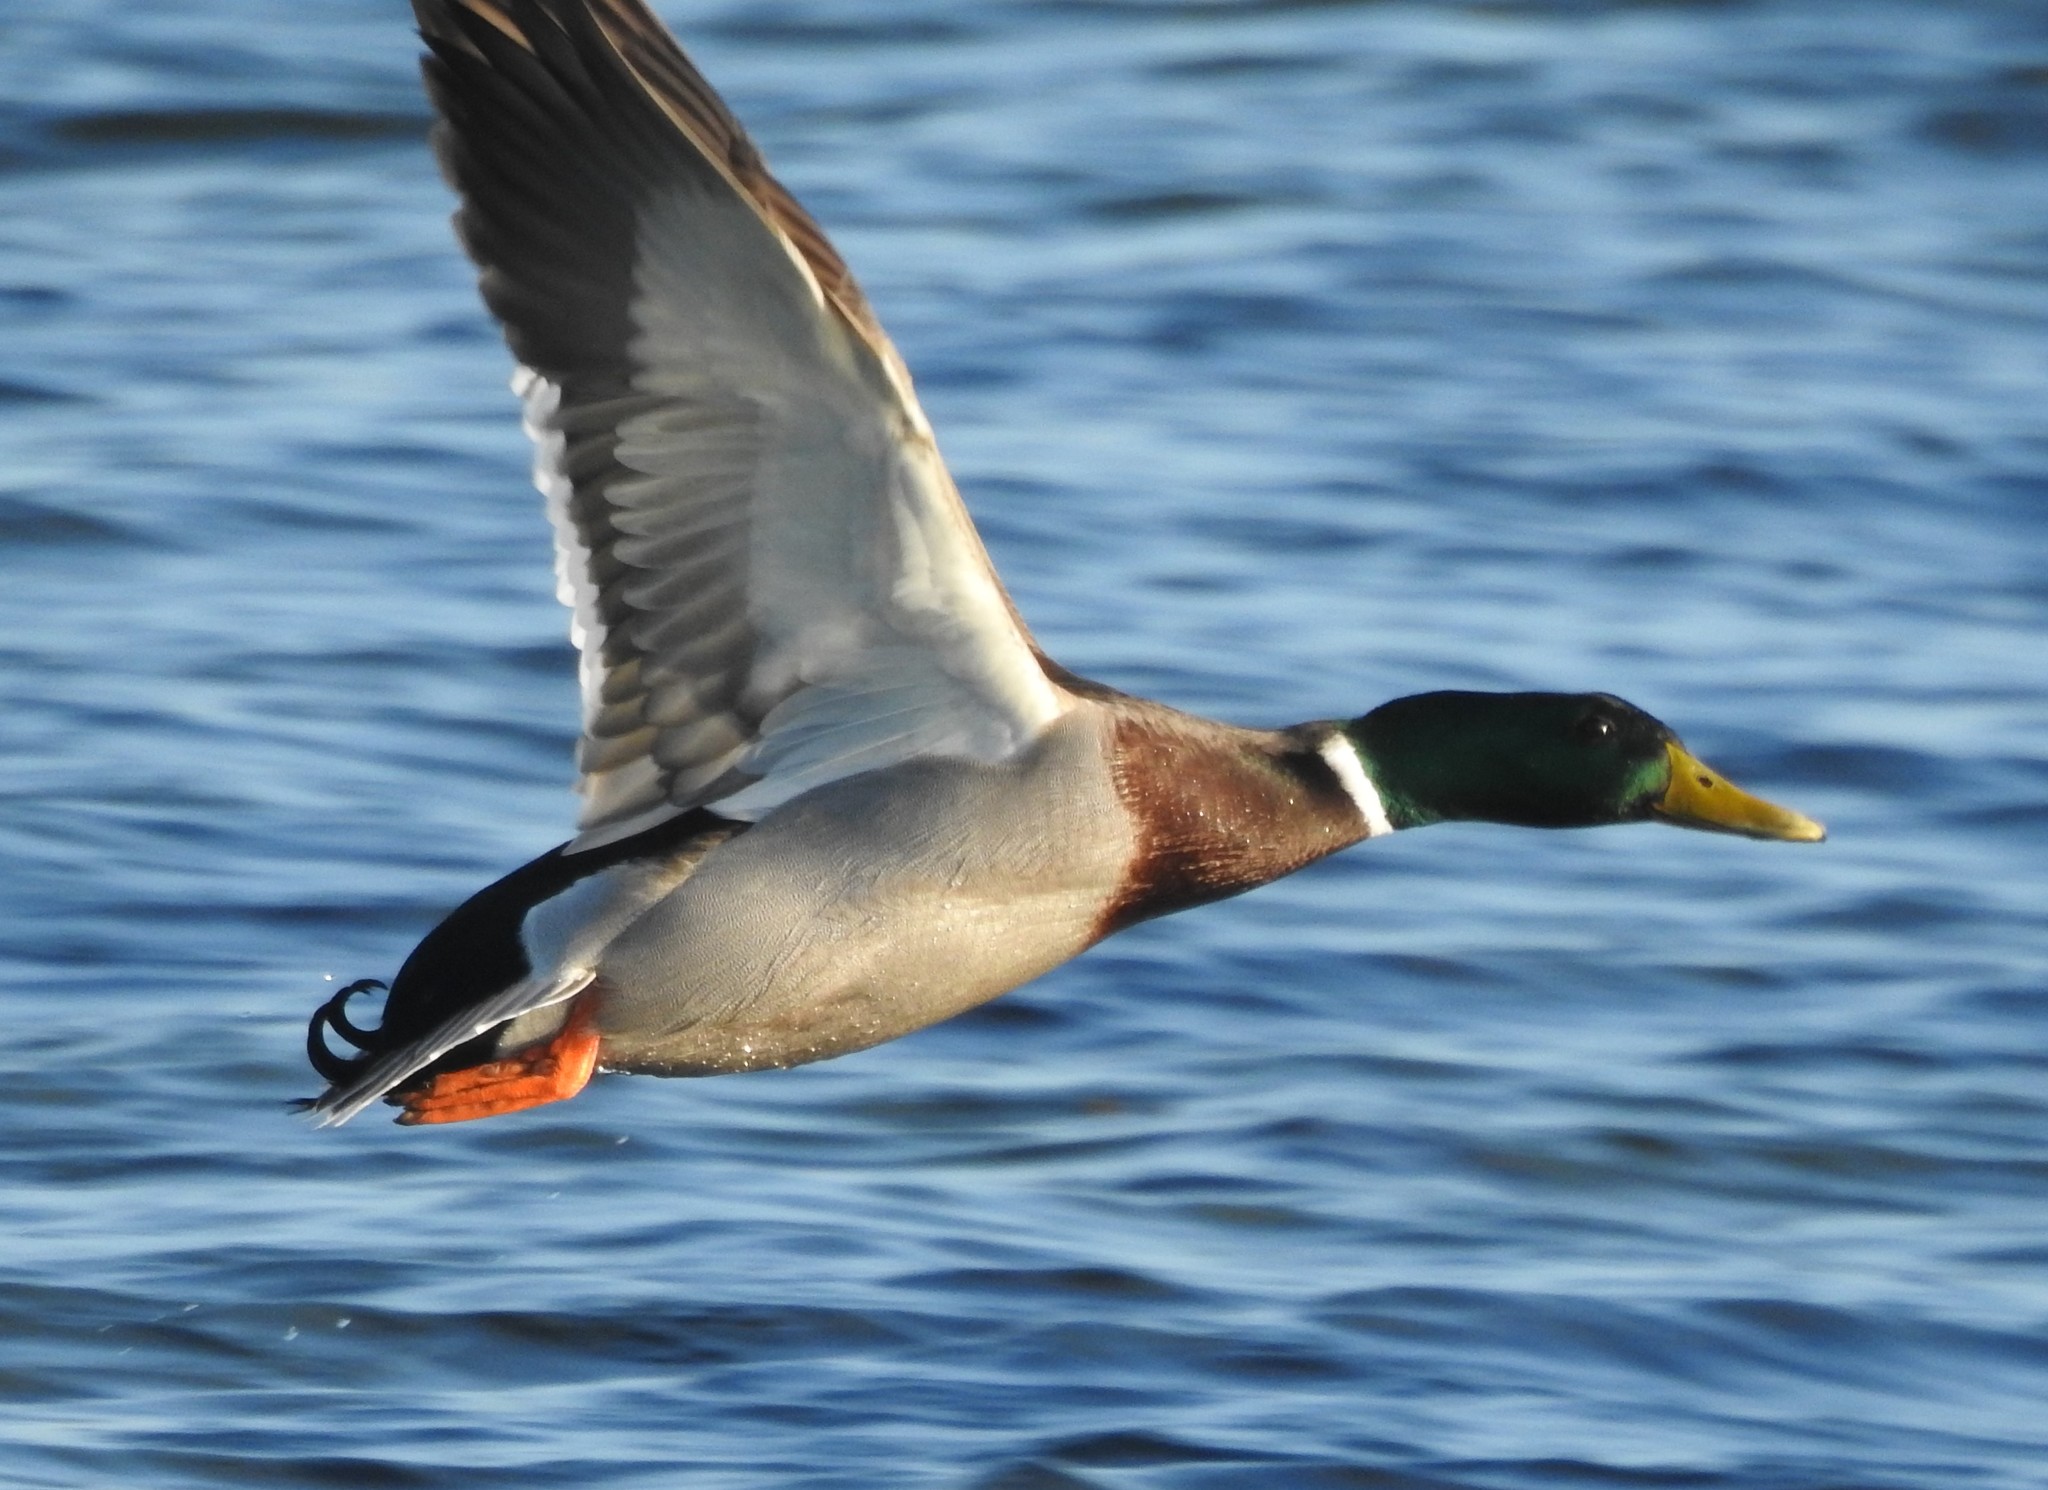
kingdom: Animalia
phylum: Chordata
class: Aves
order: Anseriformes
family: Anatidae
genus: Anas
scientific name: Anas platyrhynchos
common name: Mallard
